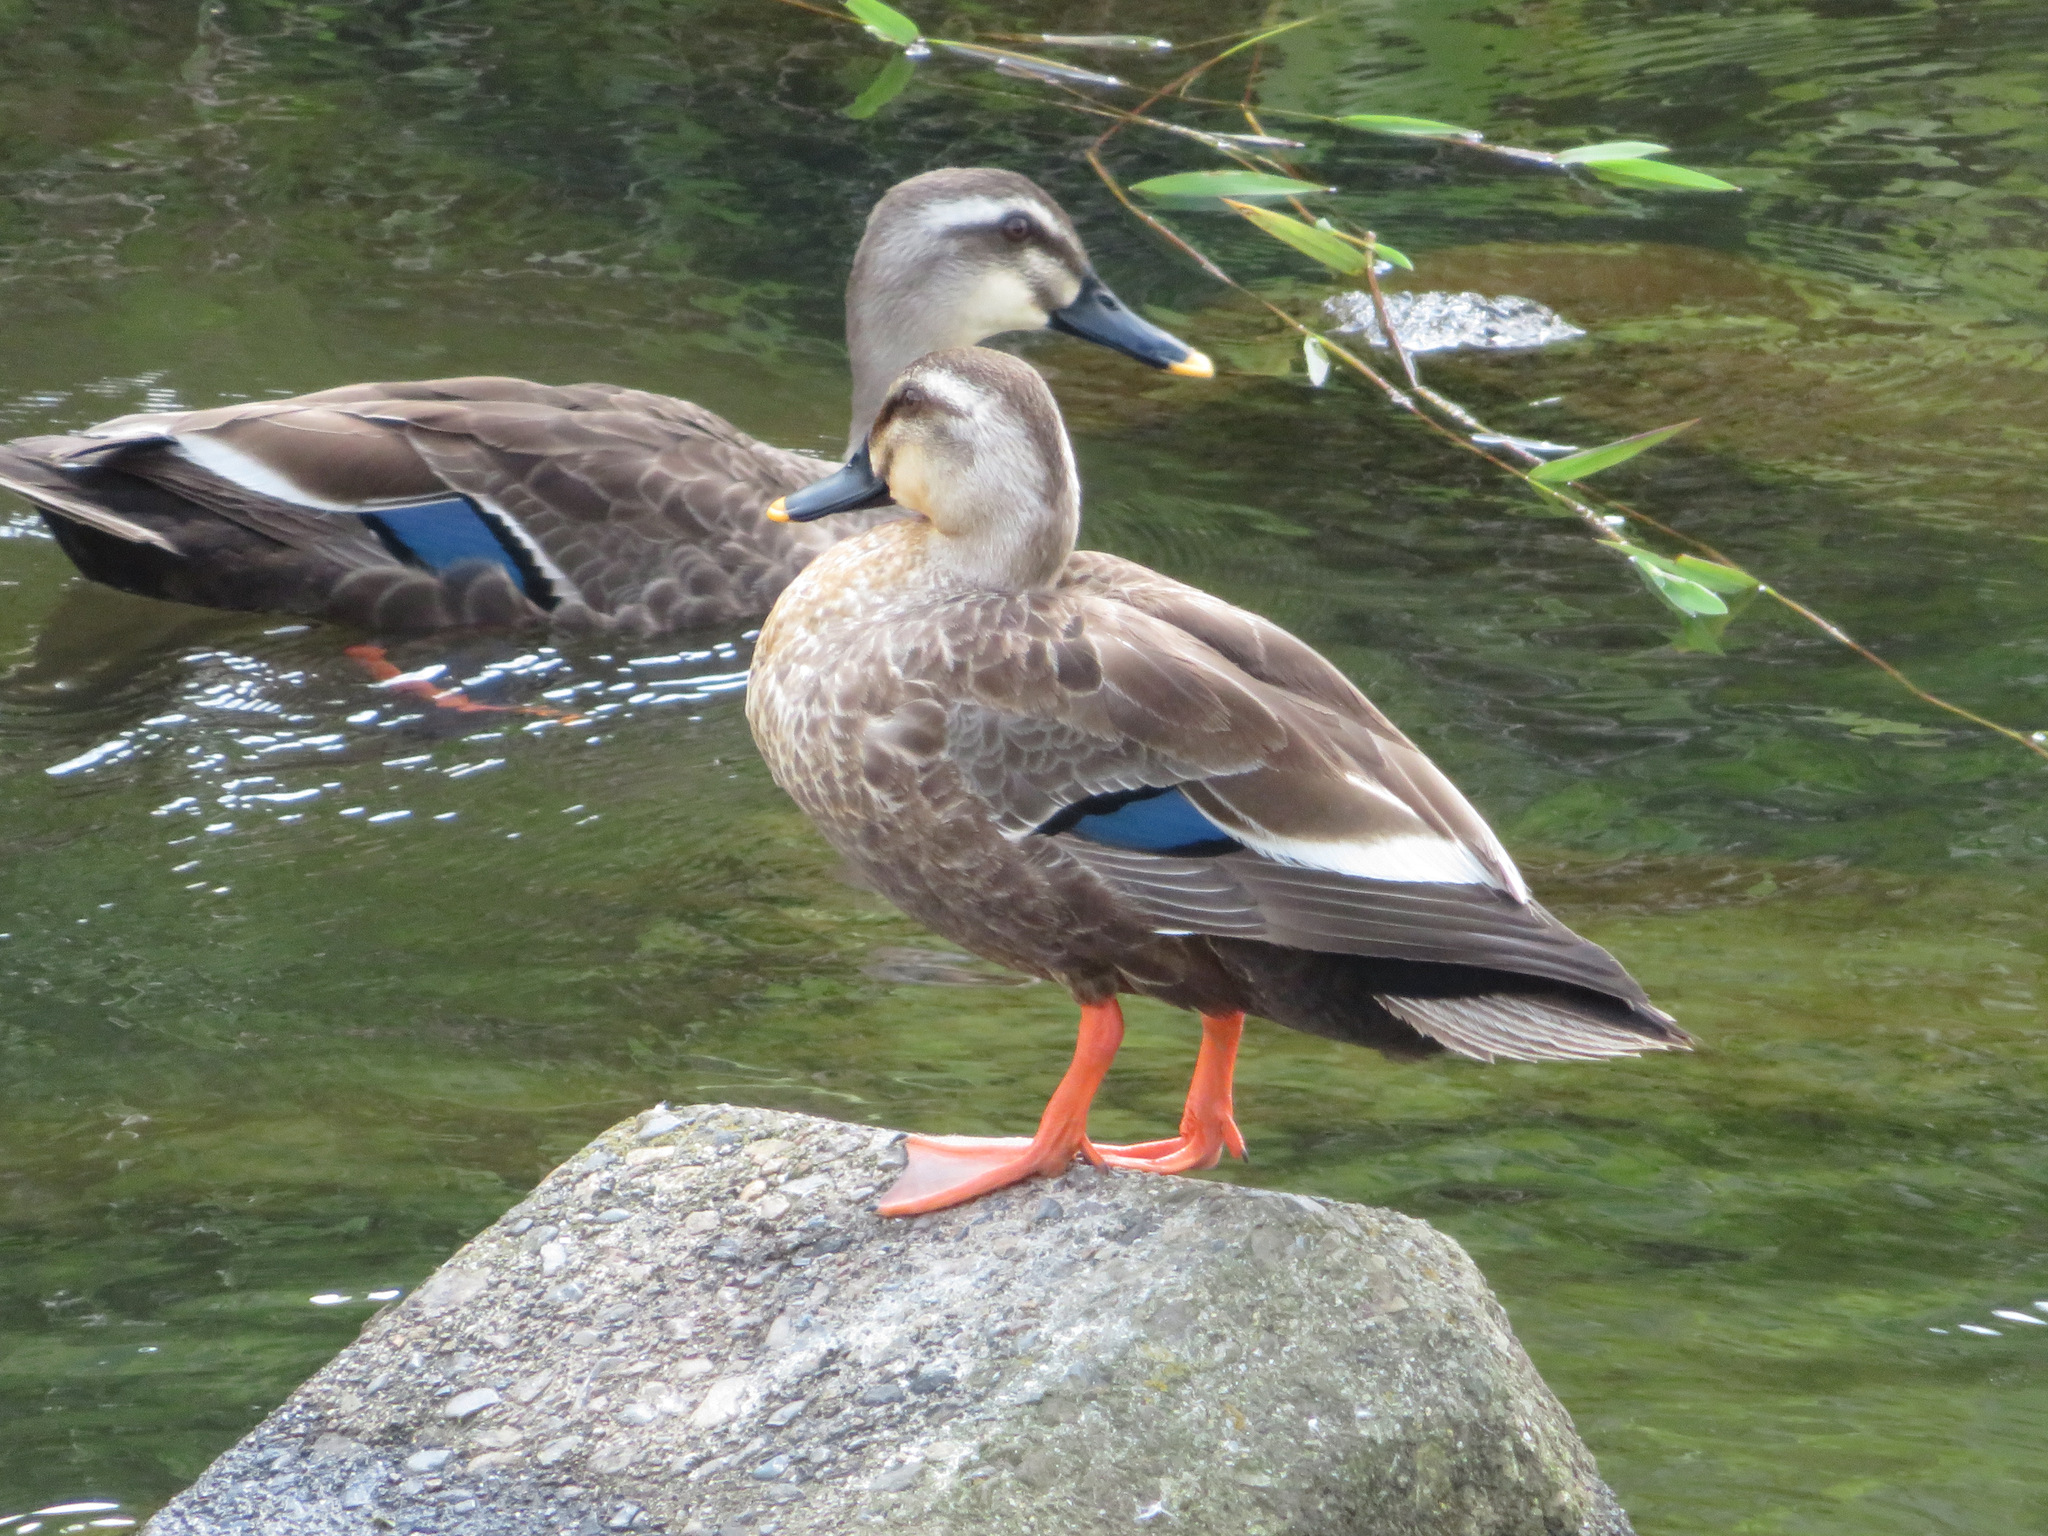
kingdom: Animalia
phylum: Chordata
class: Aves
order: Anseriformes
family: Anatidae
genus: Anas
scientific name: Anas zonorhyncha
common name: Eastern spot-billed duck
